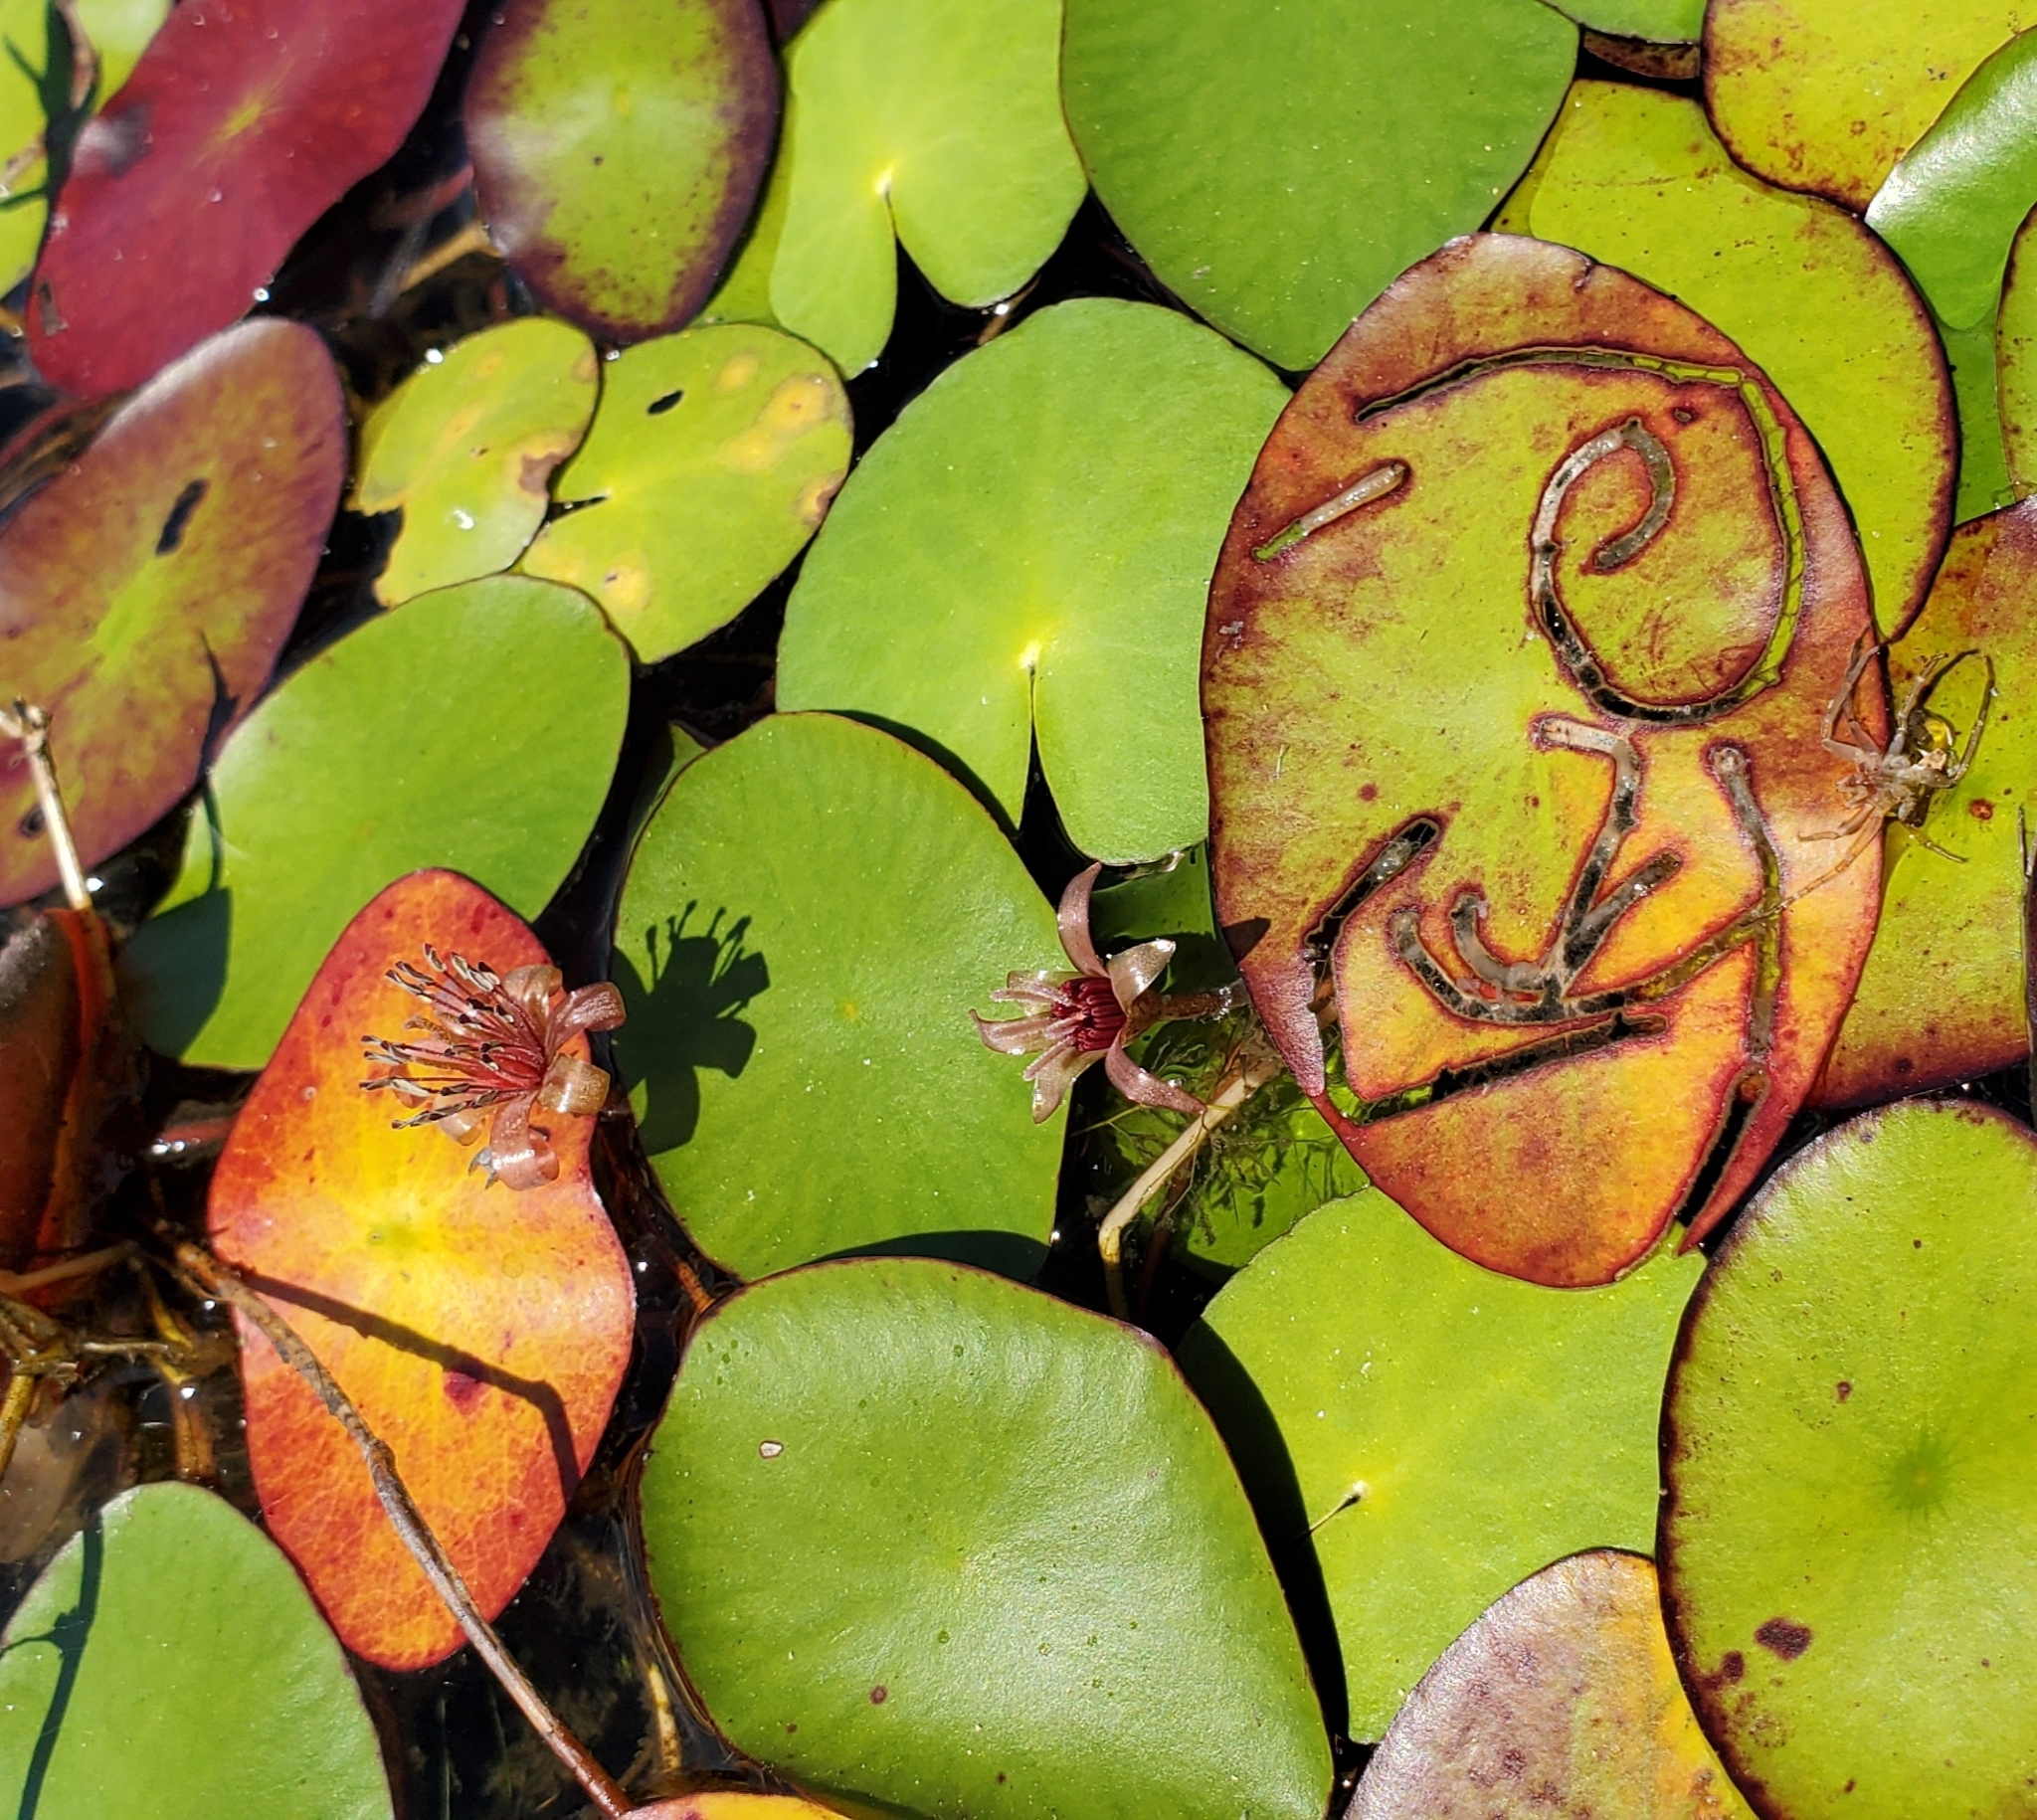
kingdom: Animalia
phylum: Arthropoda
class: Insecta
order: Diptera
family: Chironomidae
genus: Polypedilum
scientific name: Polypedilum braseniae
